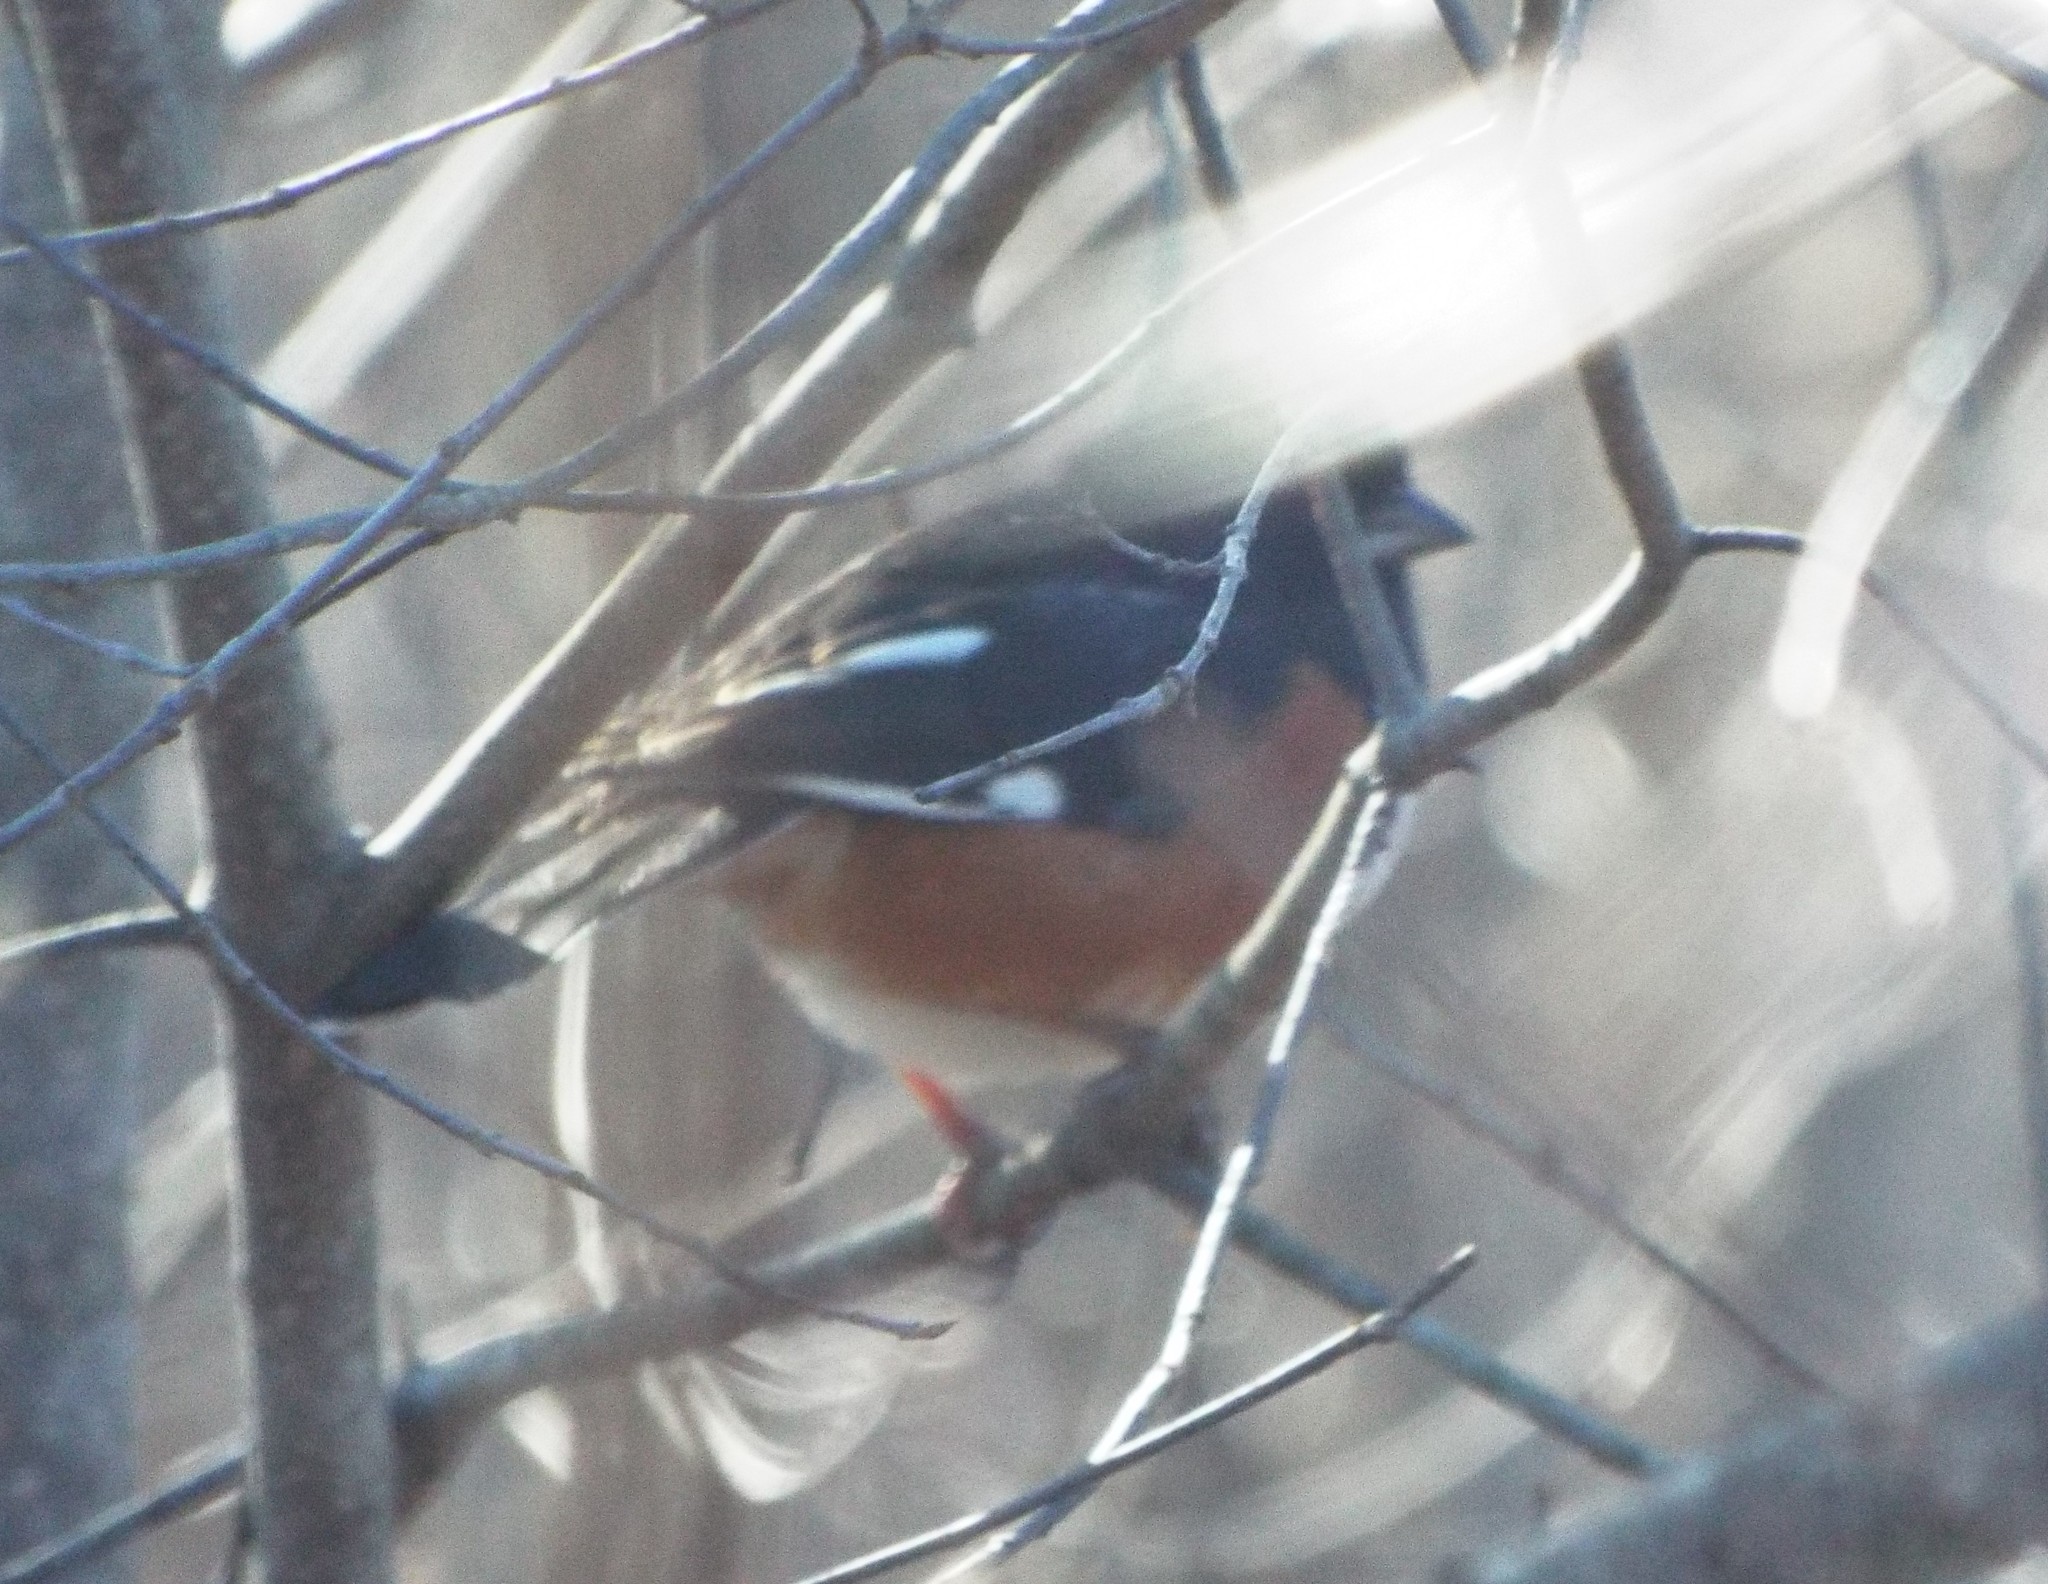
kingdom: Animalia
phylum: Chordata
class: Aves
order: Passeriformes
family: Passerellidae
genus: Pipilo
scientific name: Pipilo erythrophthalmus
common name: Eastern towhee
